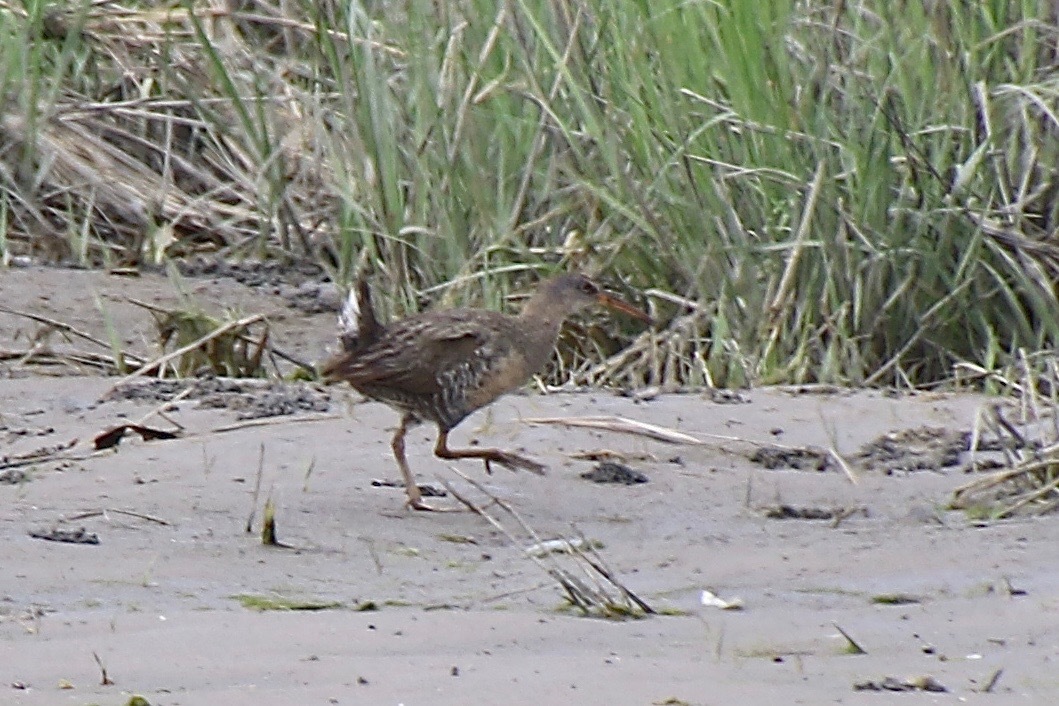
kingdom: Animalia
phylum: Chordata
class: Aves
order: Gruiformes
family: Rallidae
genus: Rallus
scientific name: Rallus crepitans
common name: Clapper rail
